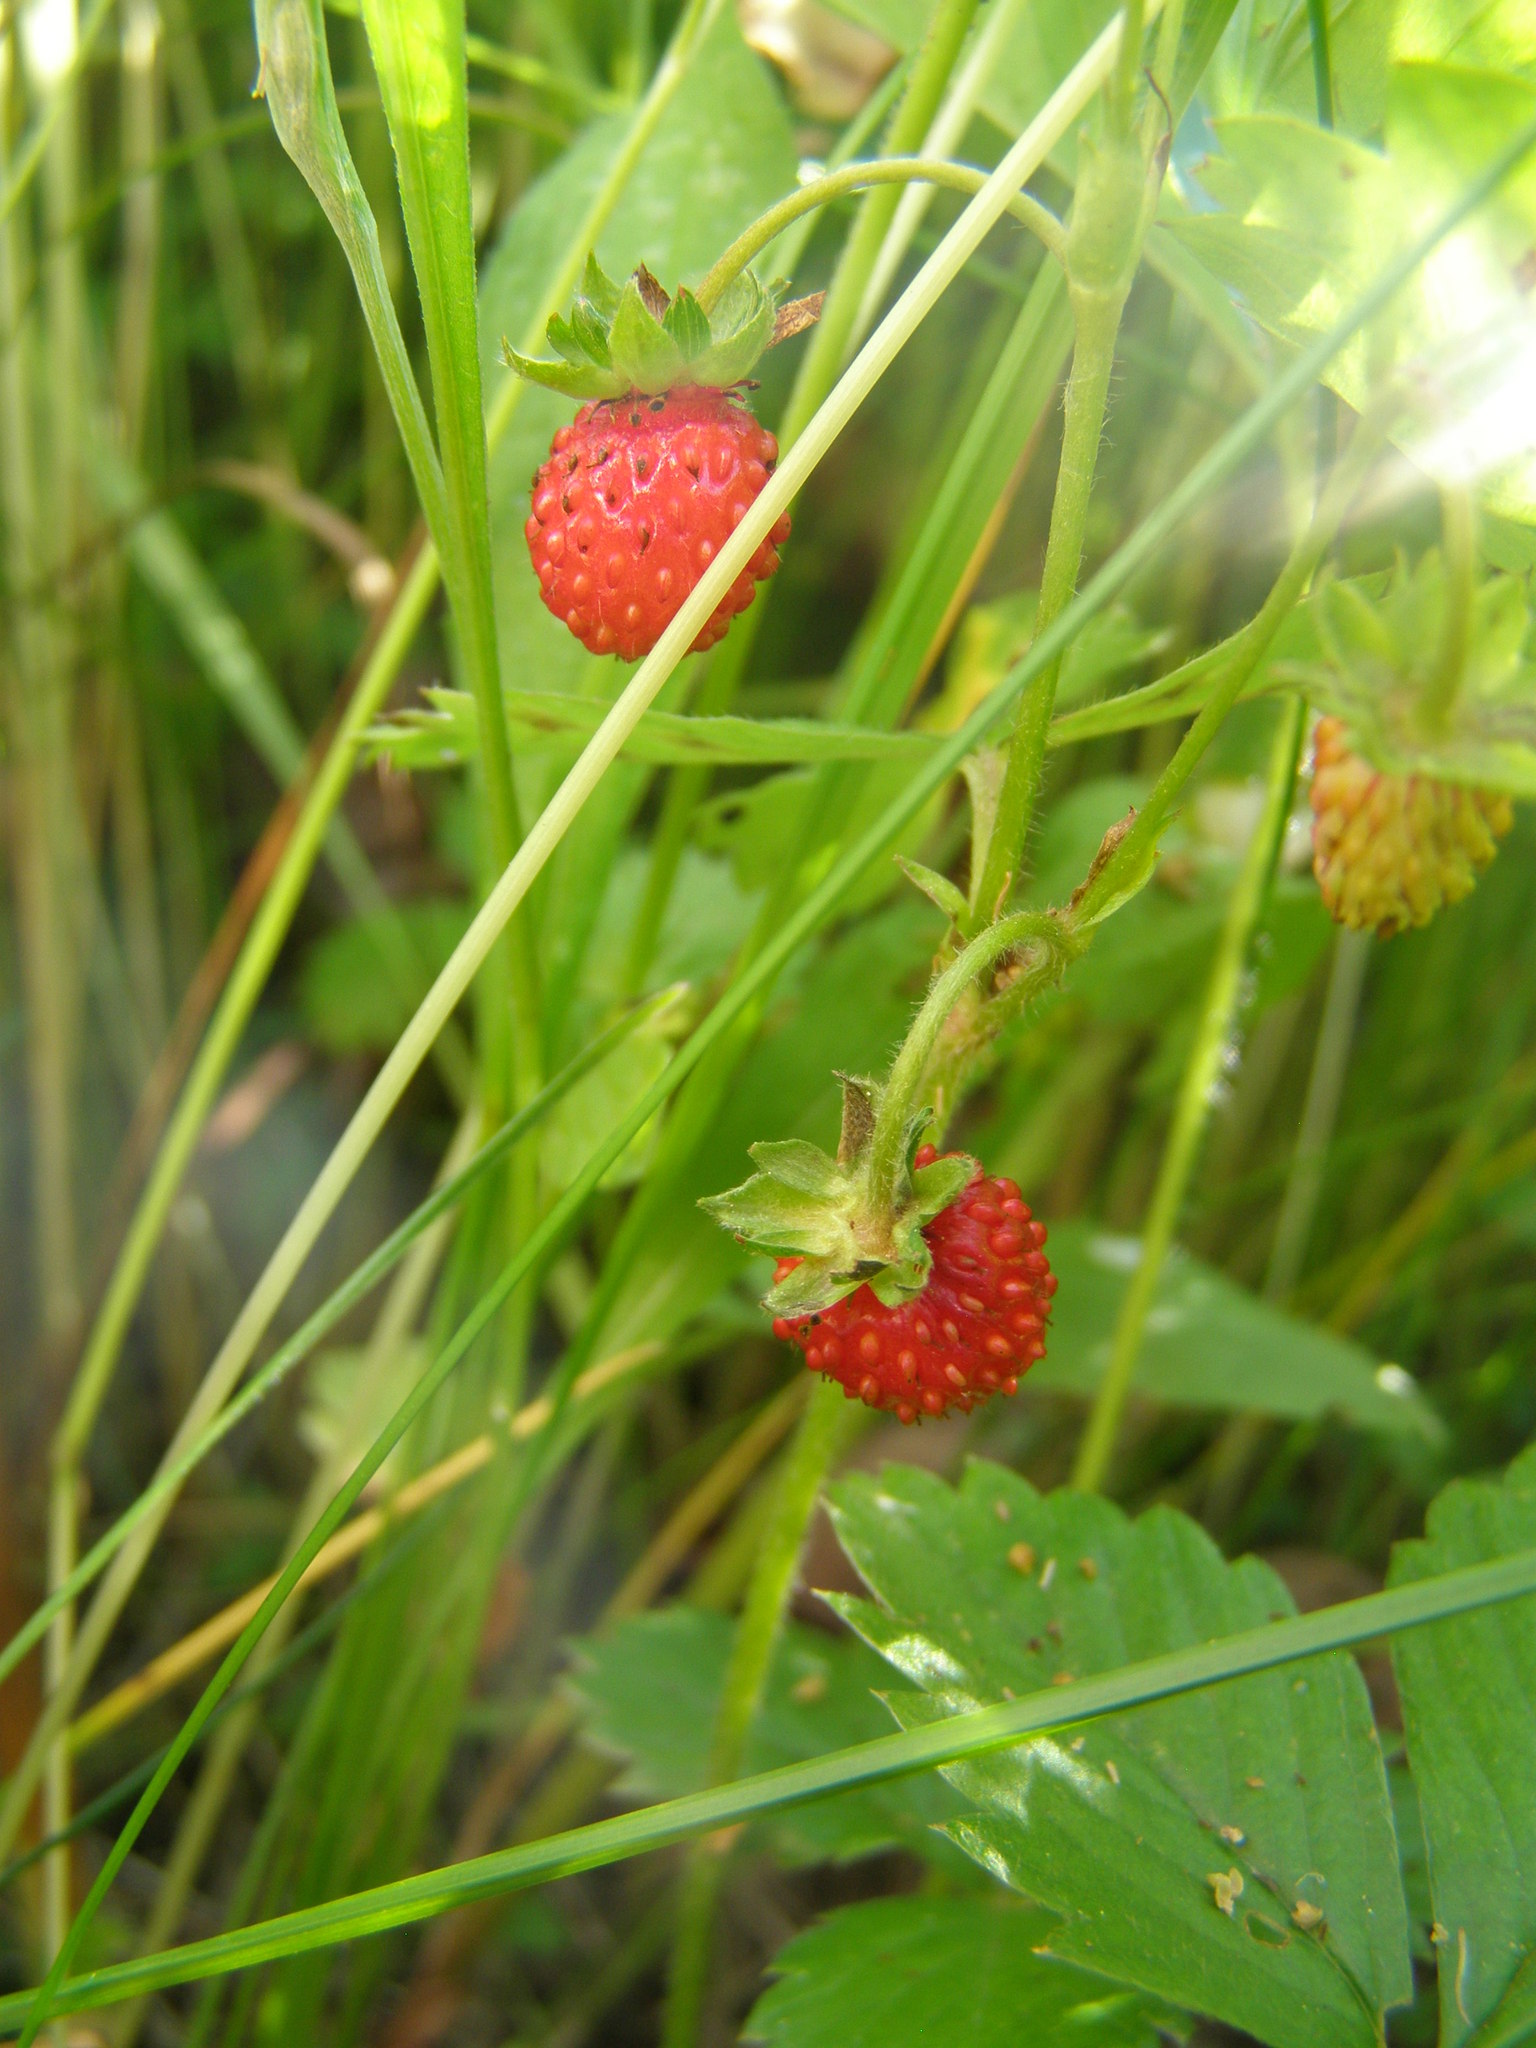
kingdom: Plantae
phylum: Tracheophyta
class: Magnoliopsida
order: Rosales
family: Rosaceae
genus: Fragaria
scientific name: Fragaria vesca
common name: Wild strawberry
